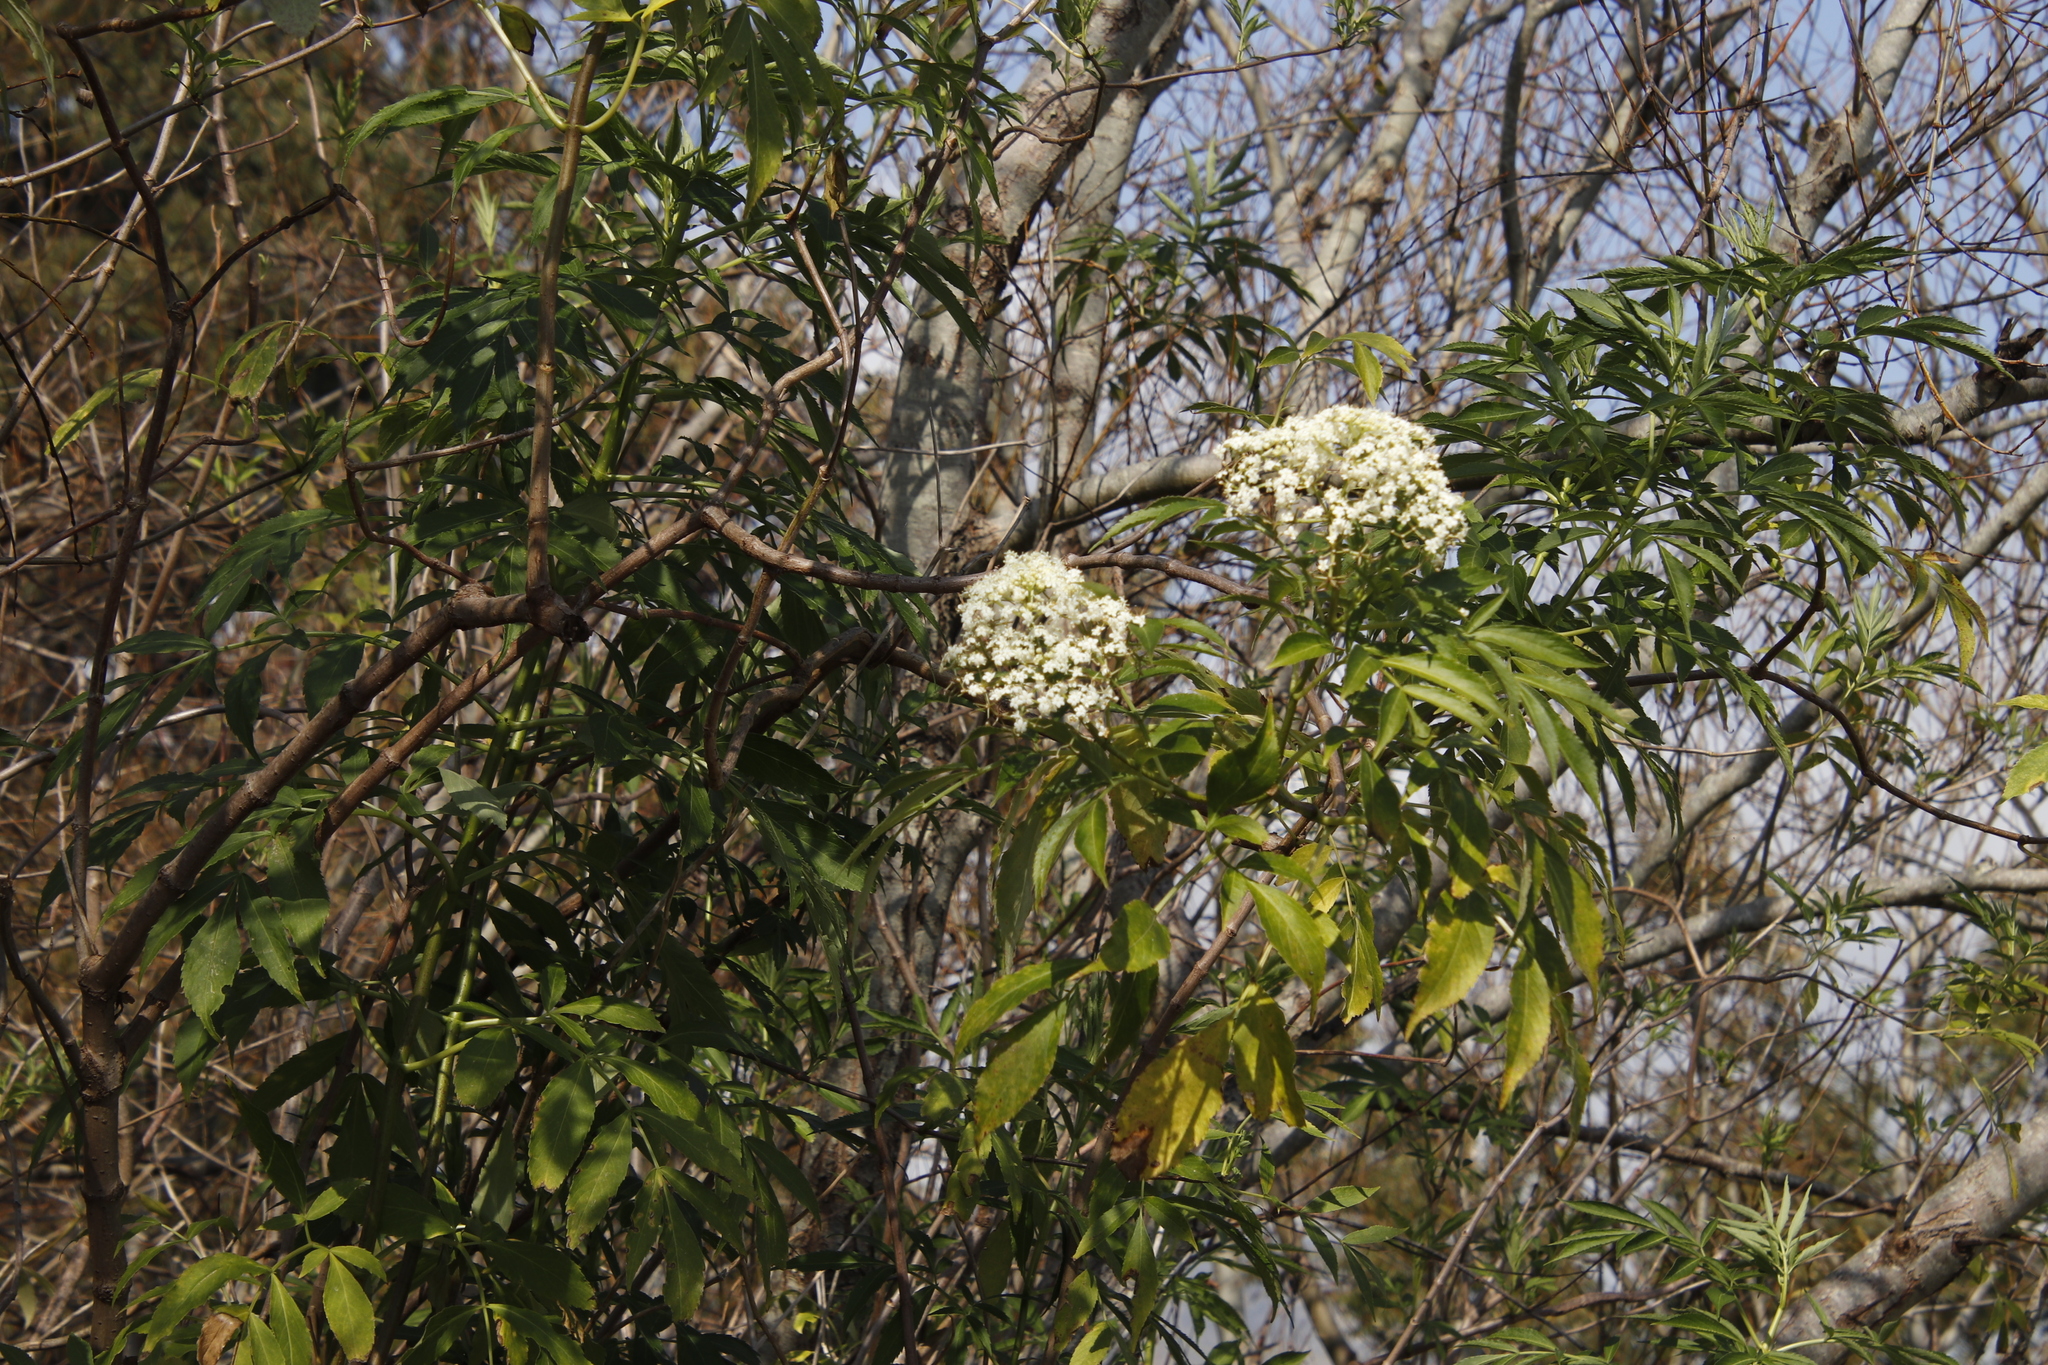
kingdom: Plantae
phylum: Tracheophyta
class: Magnoliopsida
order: Dipsacales
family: Viburnaceae
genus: Sambucus
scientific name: Sambucus nigra
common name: Elder
